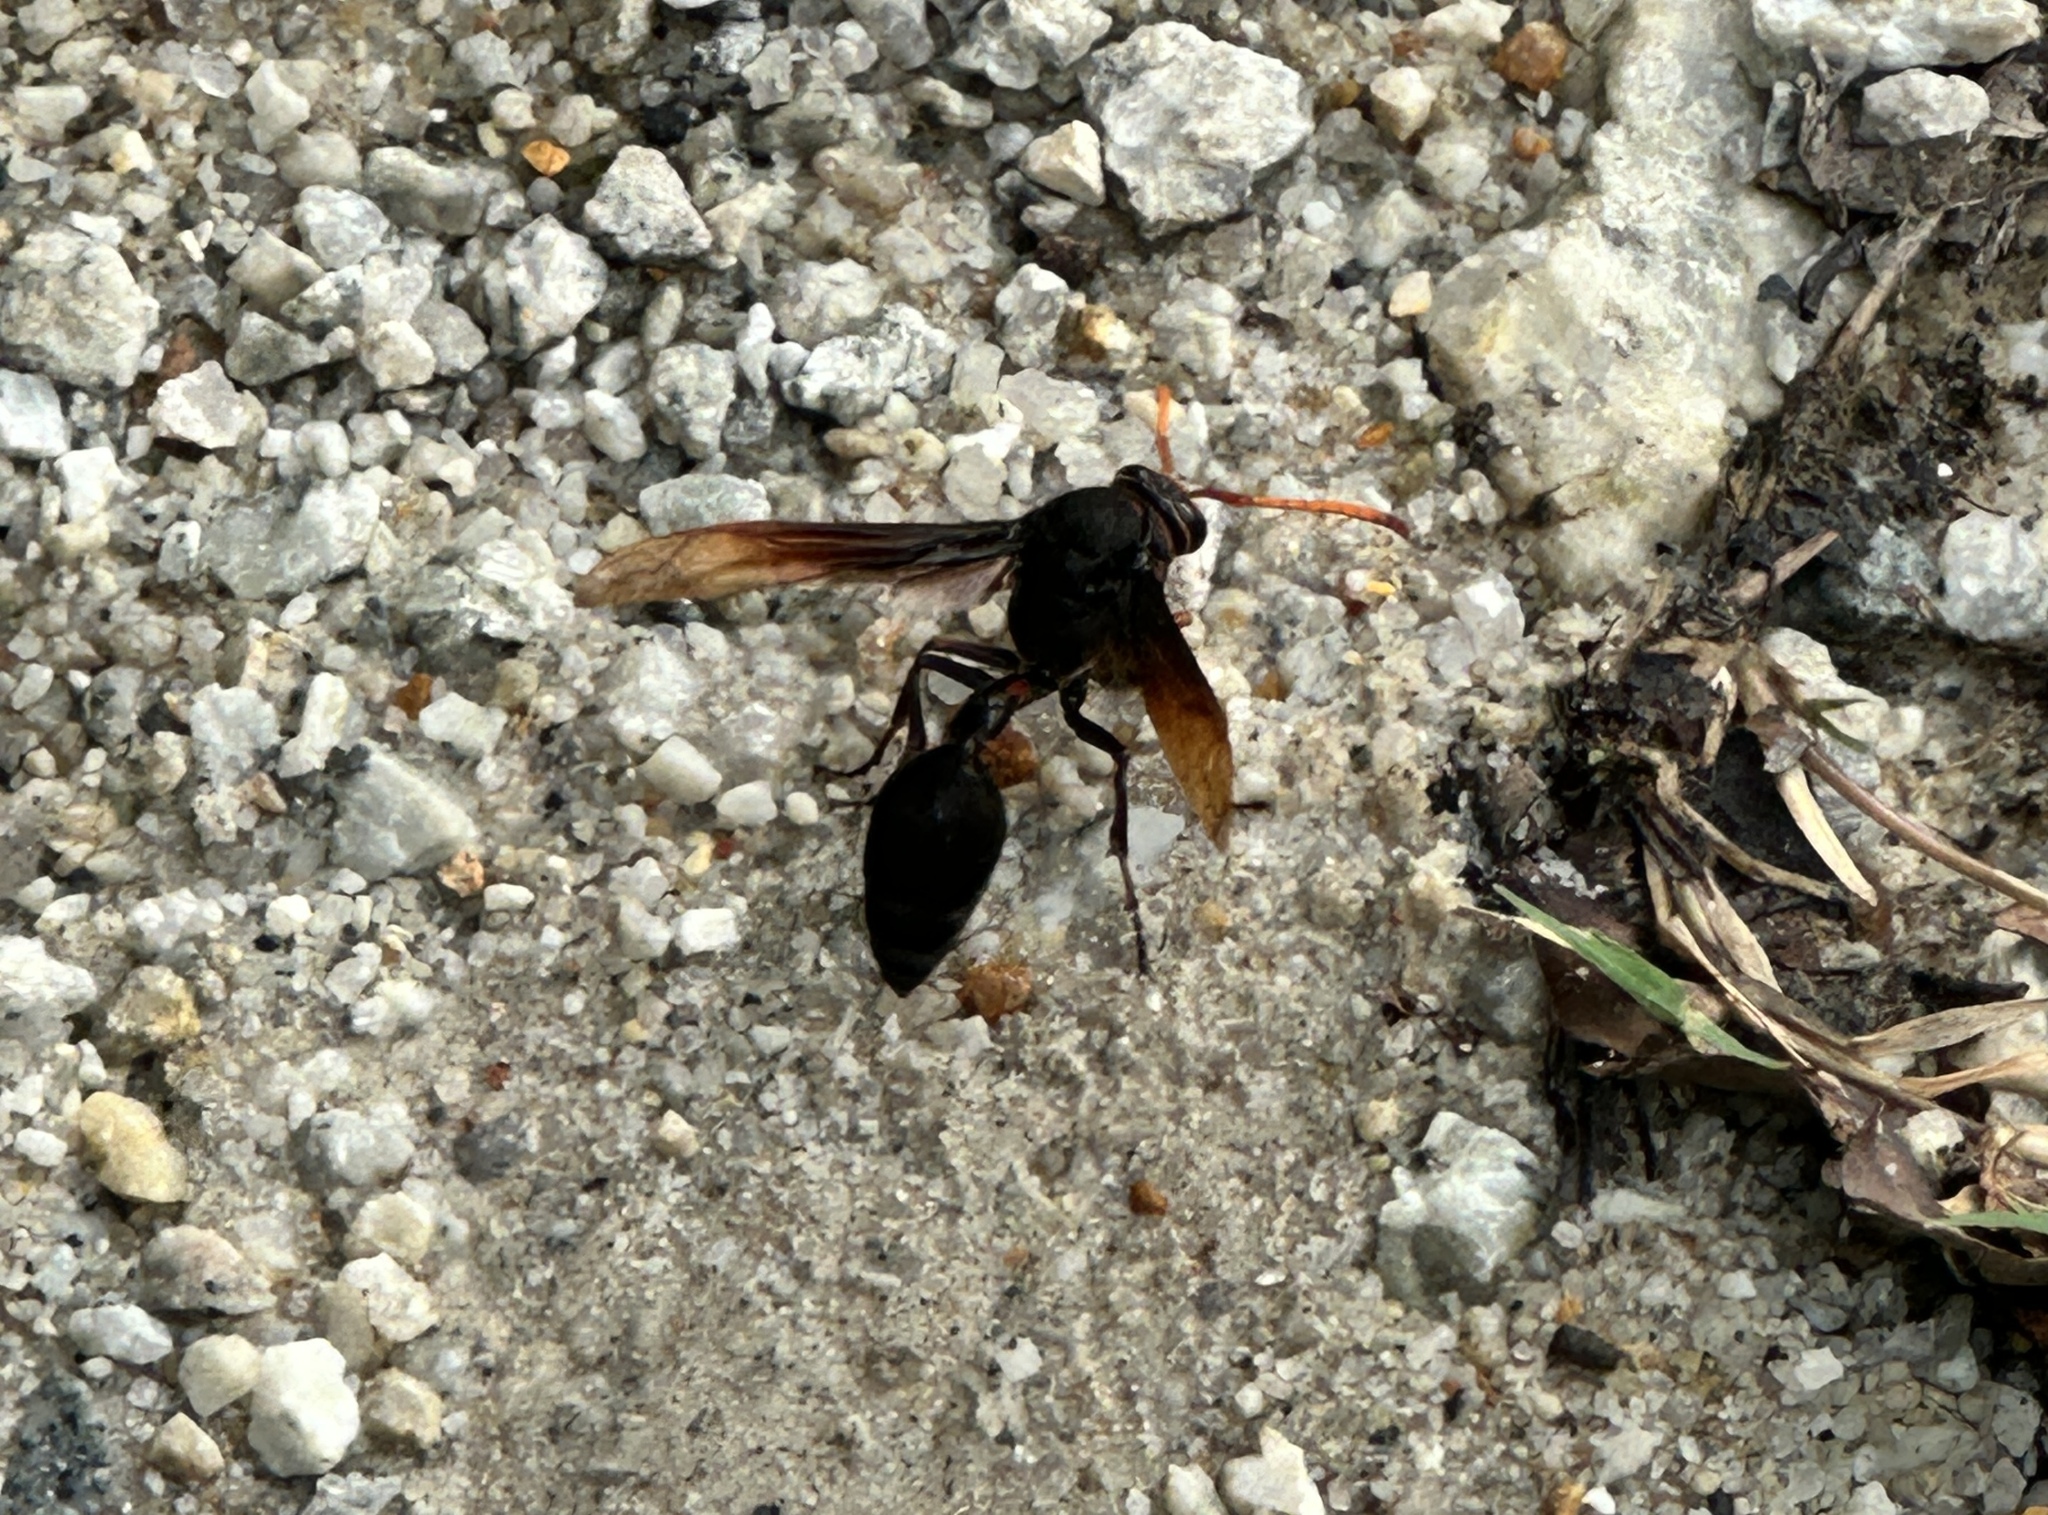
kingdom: Animalia
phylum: Arthropoda
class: Insecta
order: Hymenoptera
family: Eumenidae
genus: Delta
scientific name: Delta pyriforme
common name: Wasp
